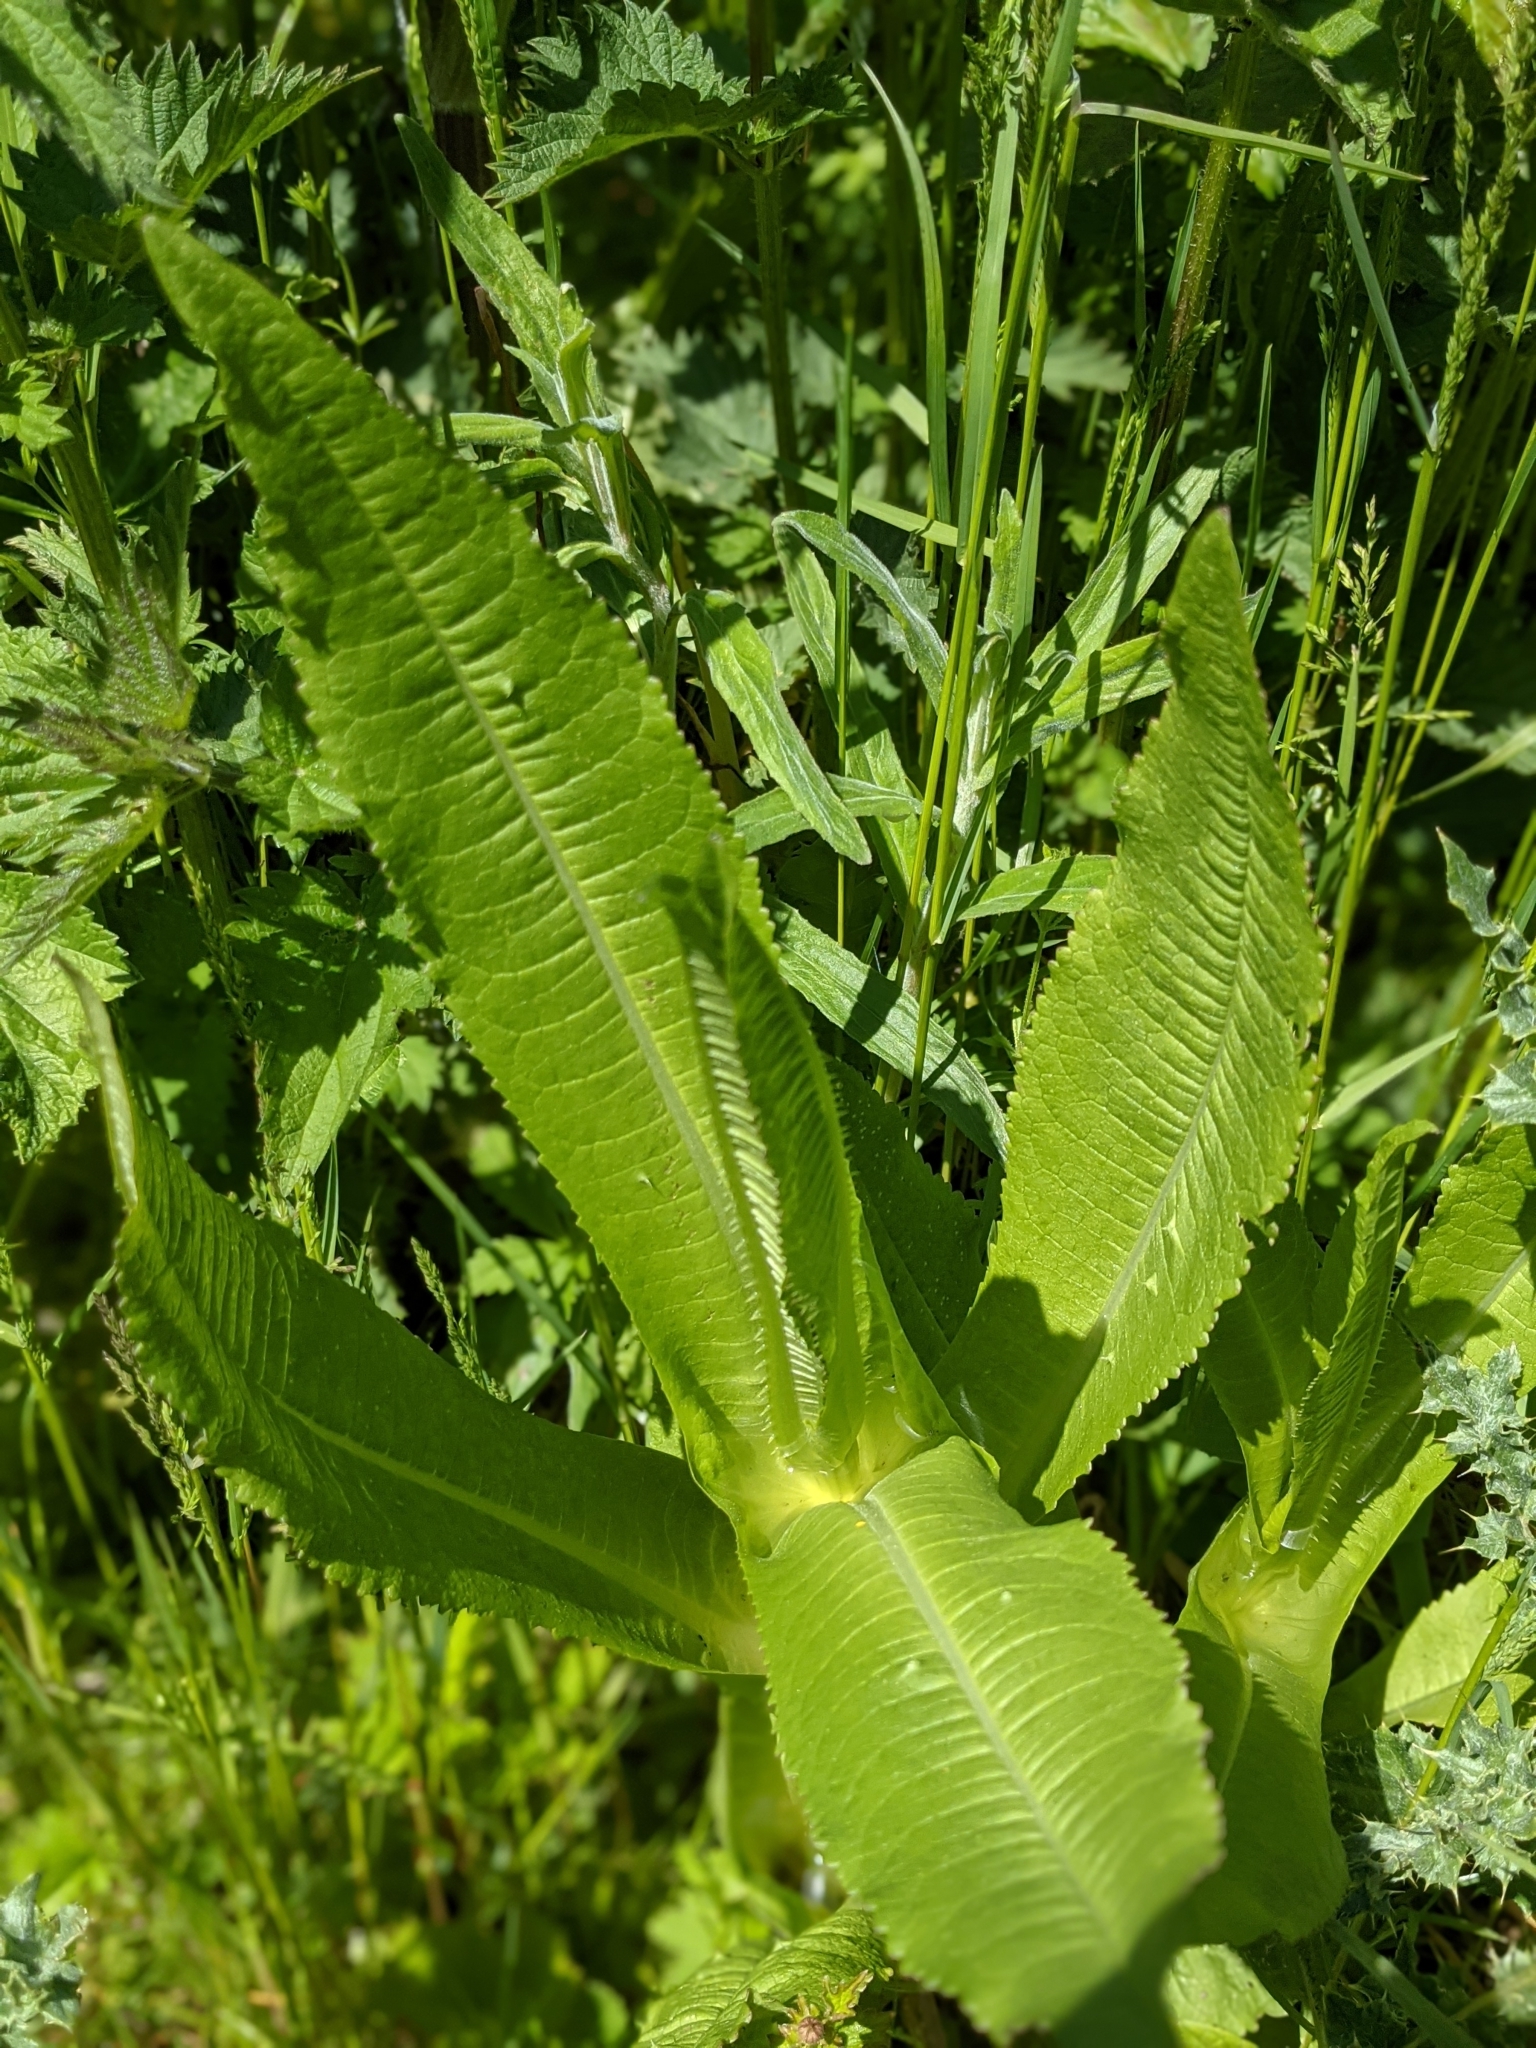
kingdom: Plantae
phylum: Tracheophyta
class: Magnoliopsida
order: Dipsacales
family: Caprifoliaceae
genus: Dipsacus
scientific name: Dipsacus fullonum
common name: Teasel
